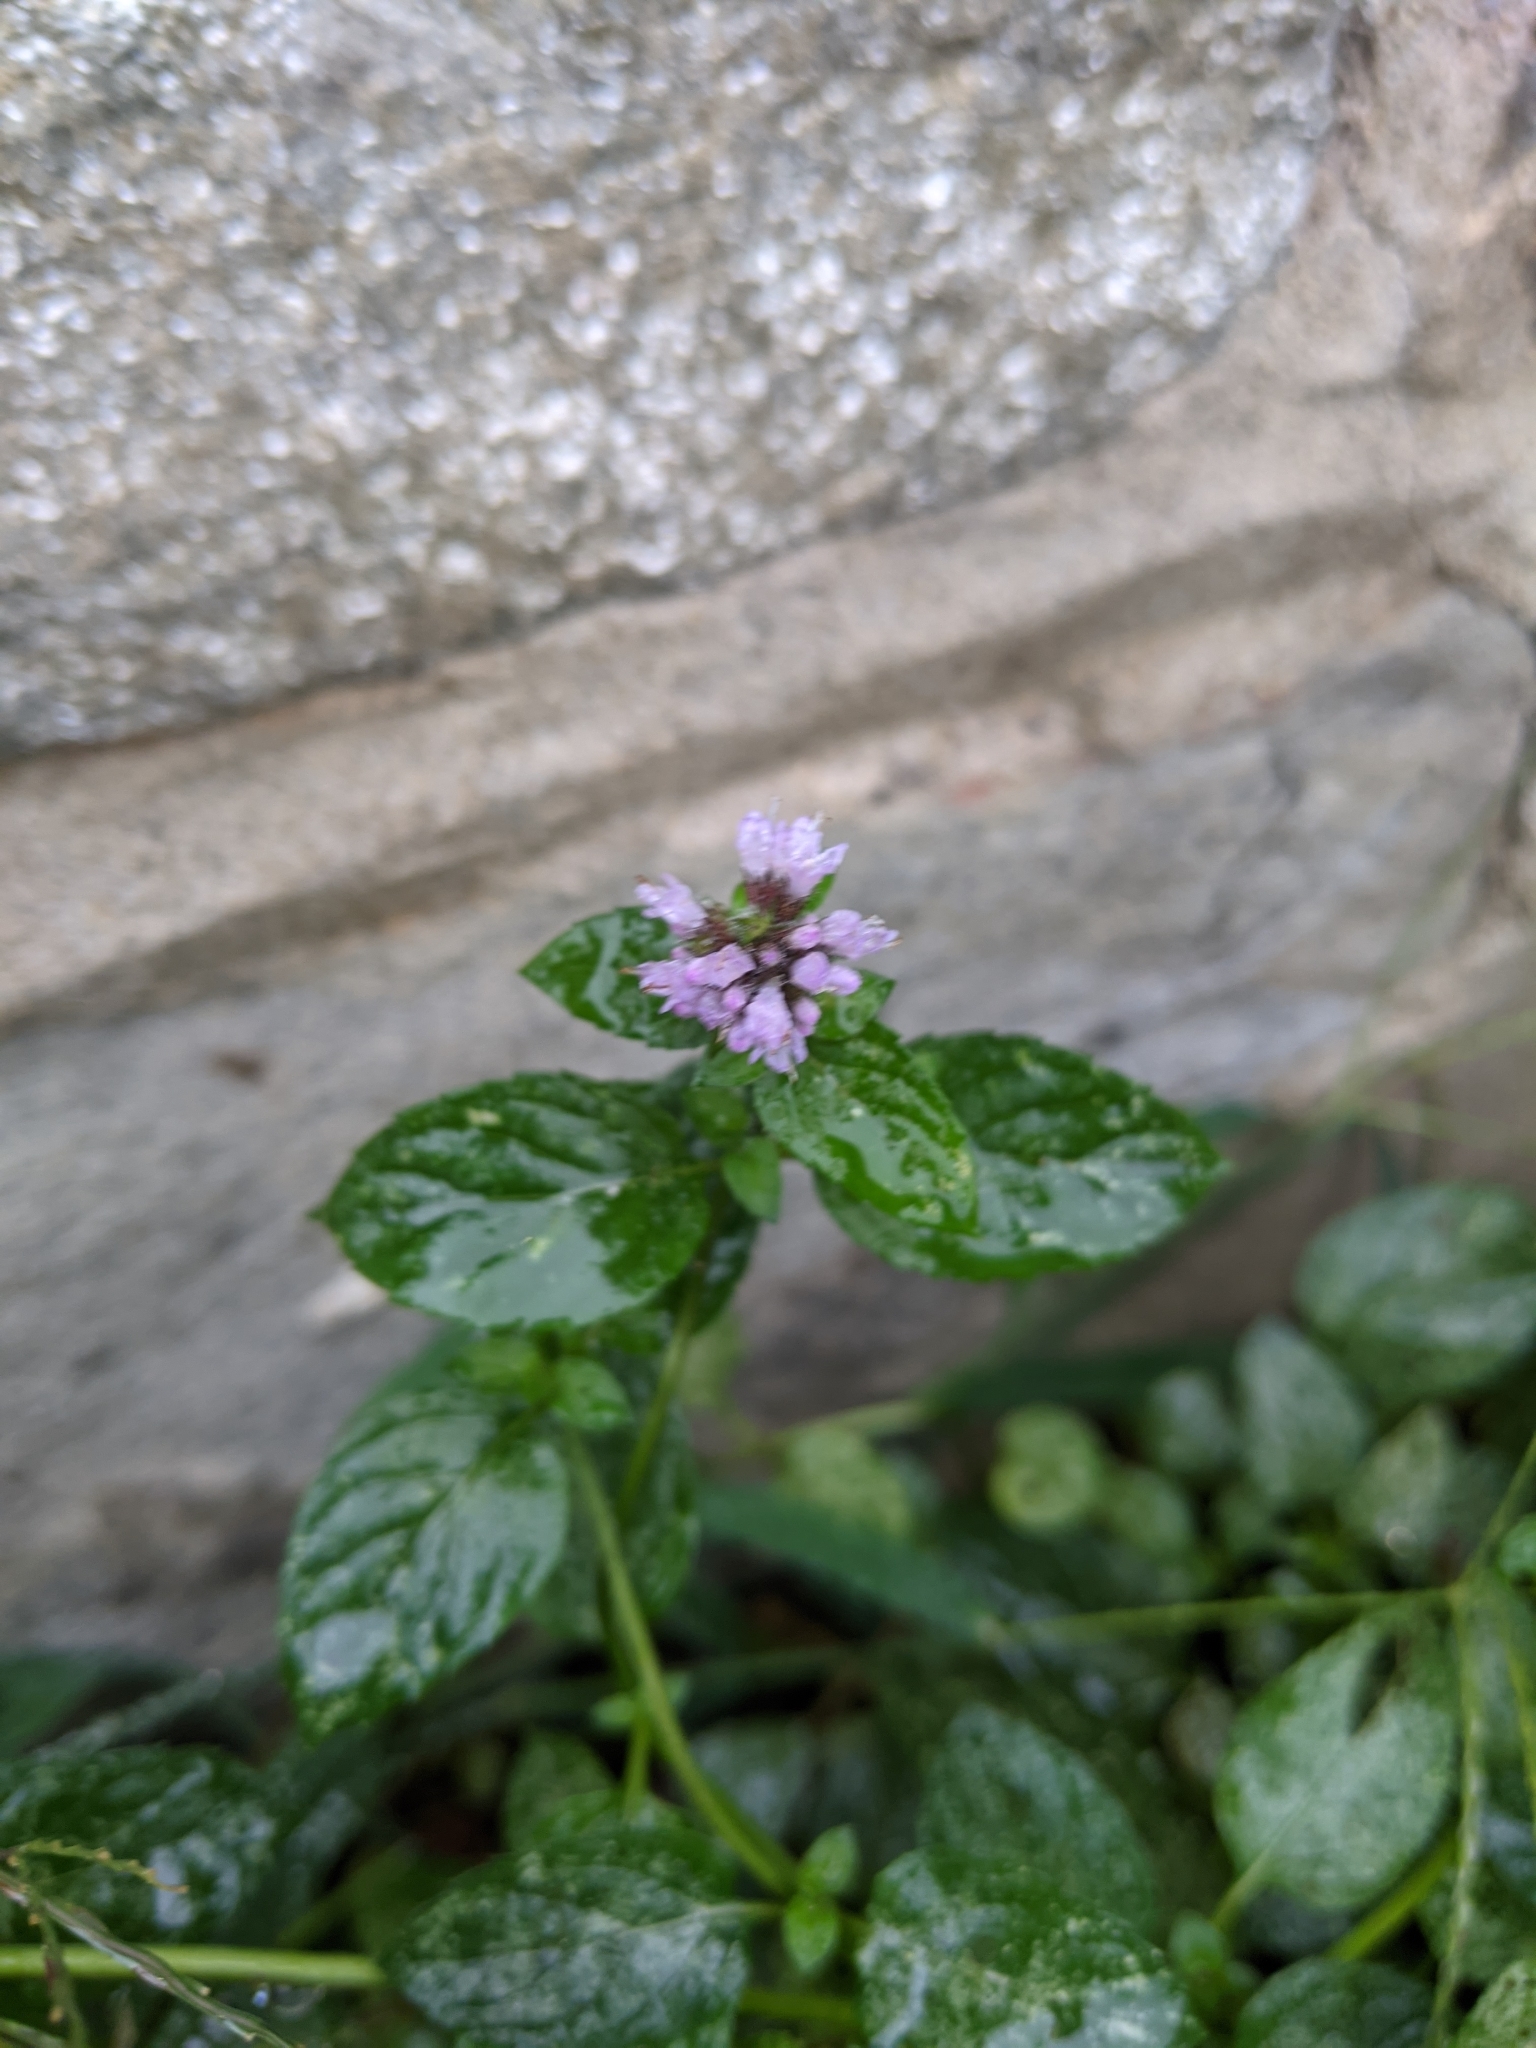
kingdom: Plantae
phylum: Tracheophyta
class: Magnoliopsida
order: Lamiales
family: Lamiaceae
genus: Mentha
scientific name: Mentha piperita
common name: Peppermint
